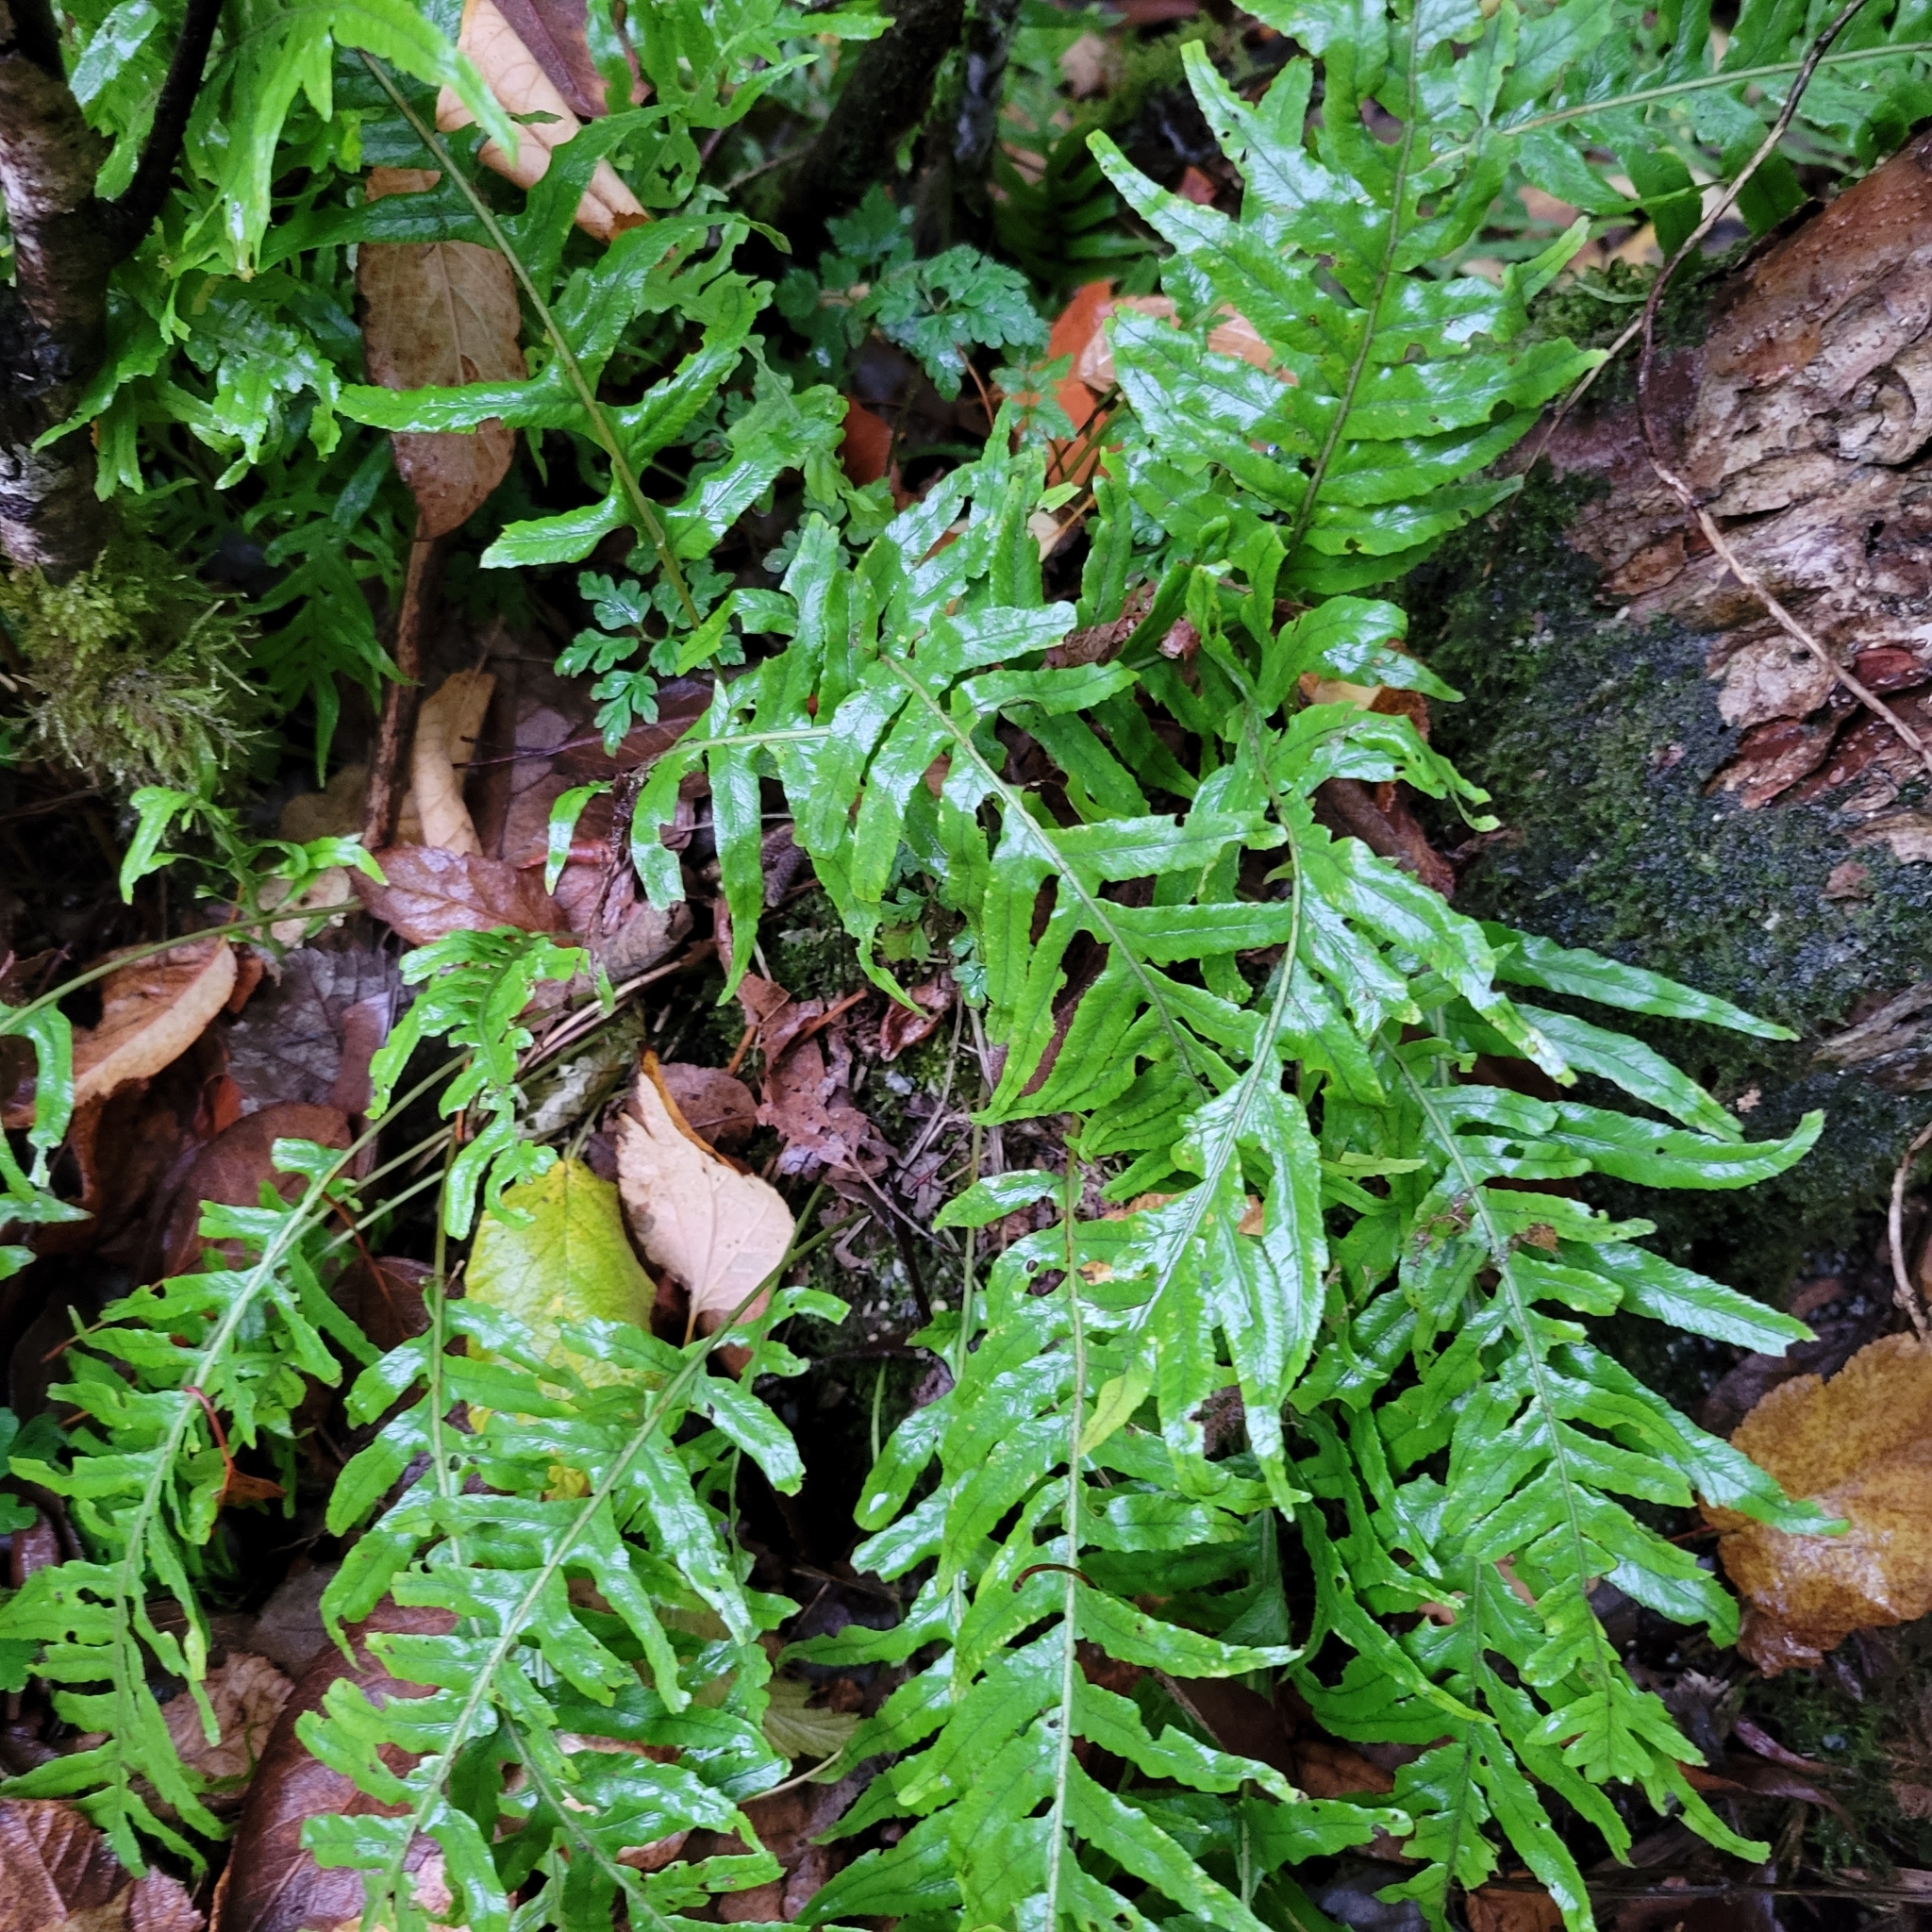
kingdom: Plantae
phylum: Tracheophyta
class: Polypodiopsida
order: Polypodiales
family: Polypodiaceae
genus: Polypodium
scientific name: Polypodium glycyrrhiza
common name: Licorice fern
